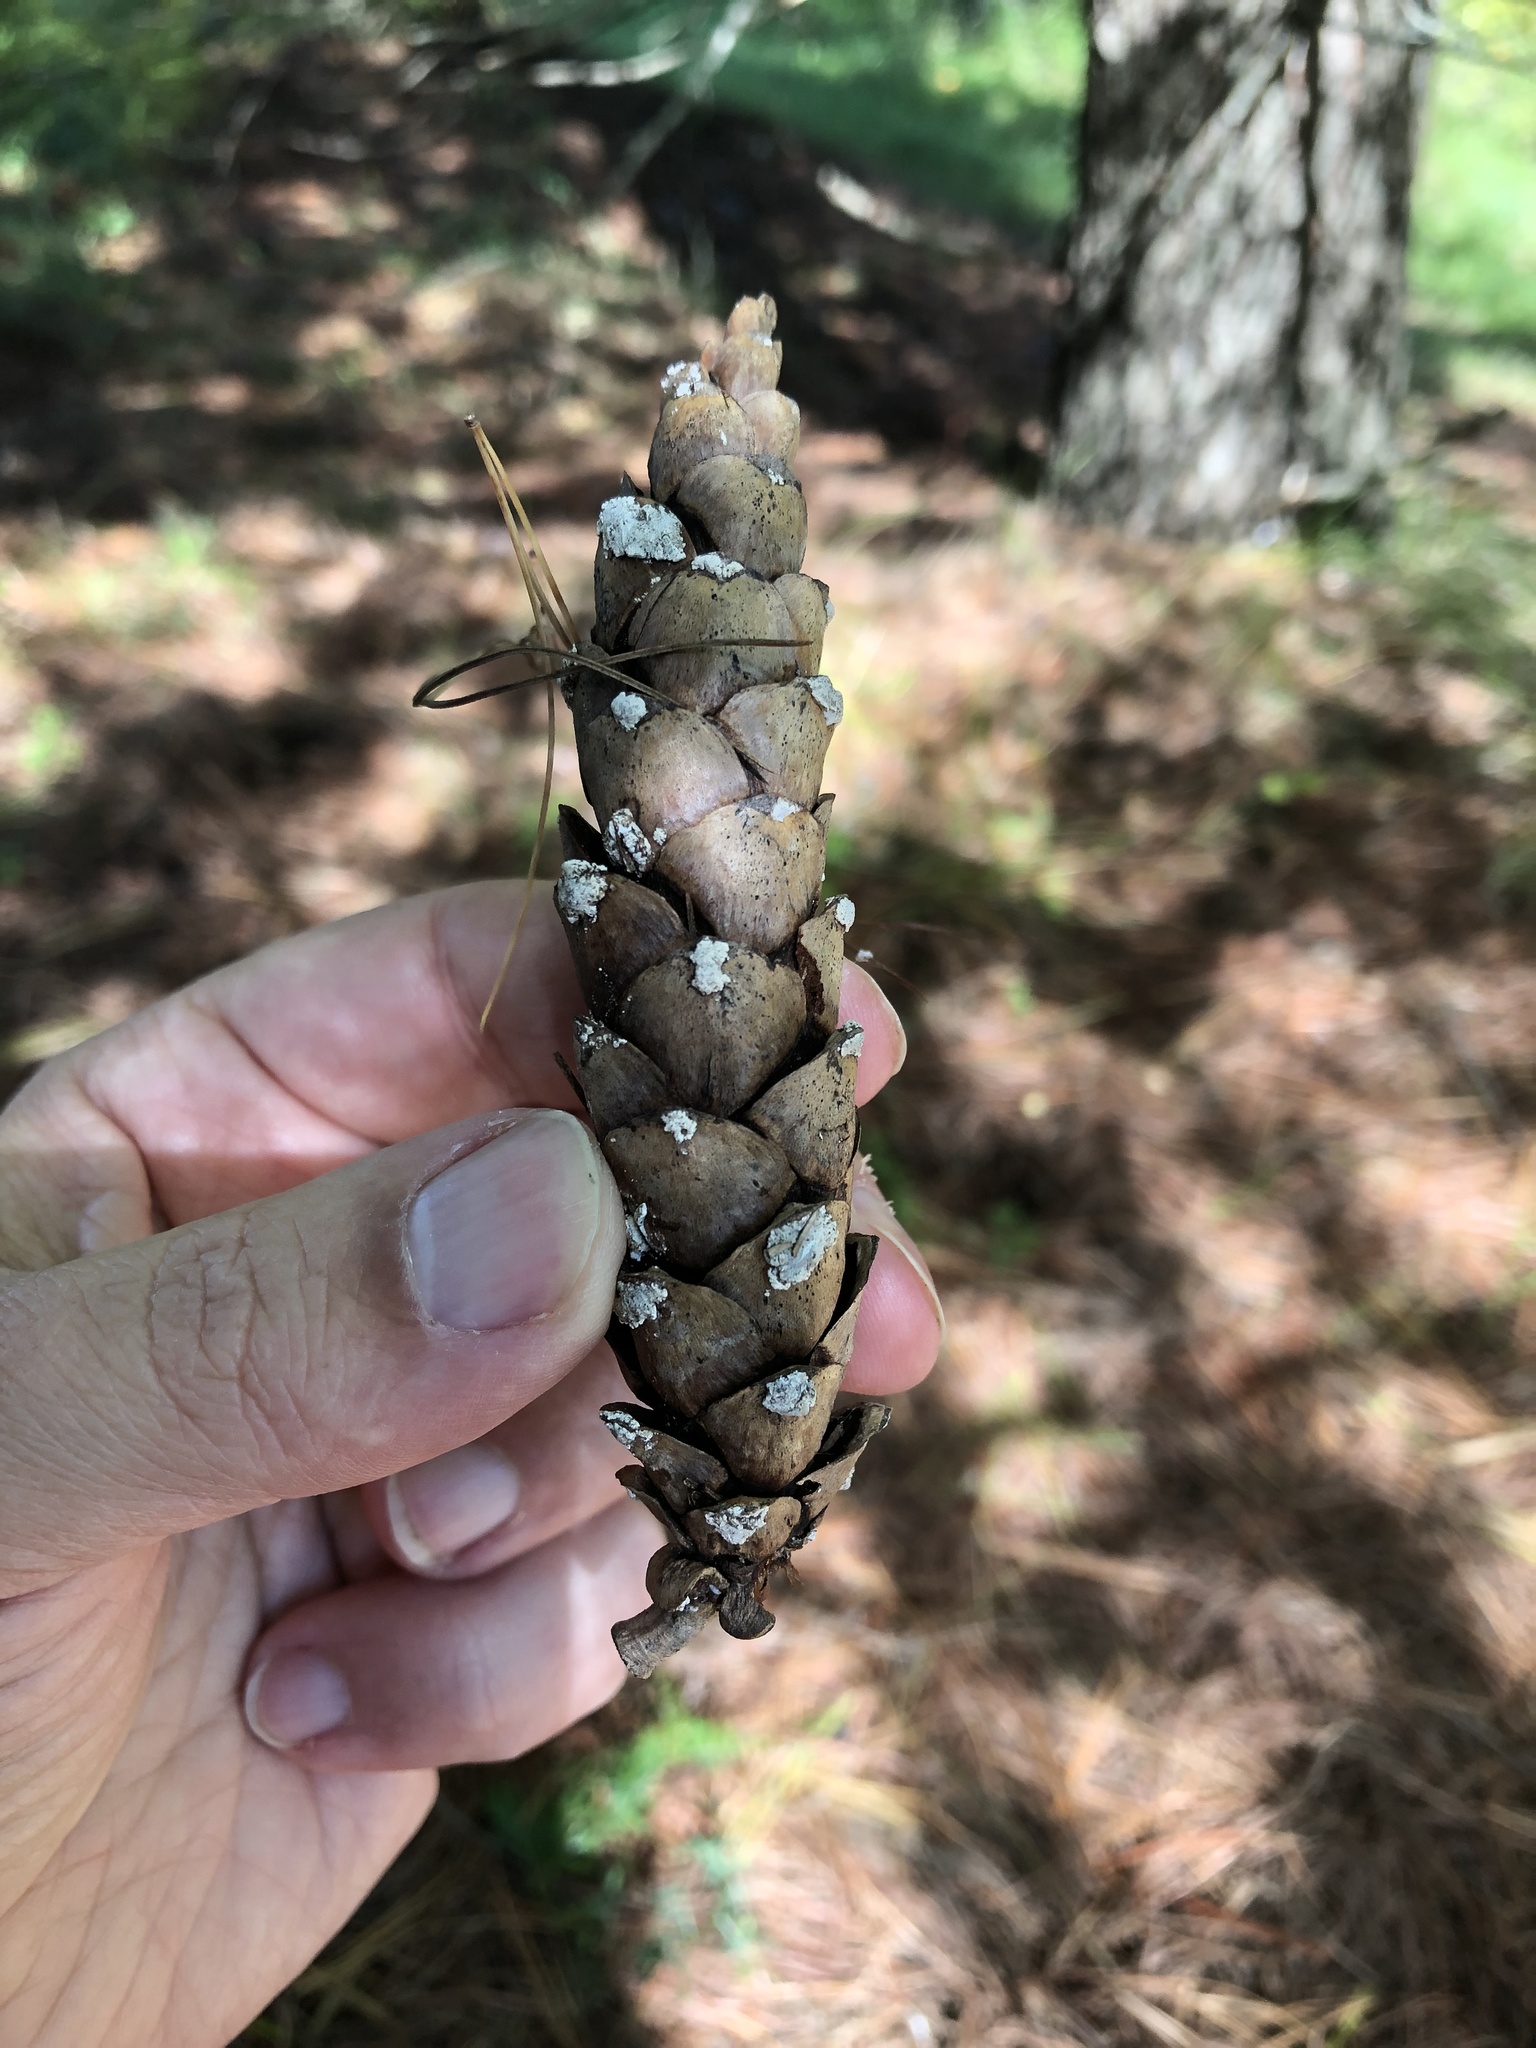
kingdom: Plantae
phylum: Tracheophyta
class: Pinopsida
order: Pinales
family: Pinaceae
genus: Pinus
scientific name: Pinus strobus
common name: Weymouth pine
